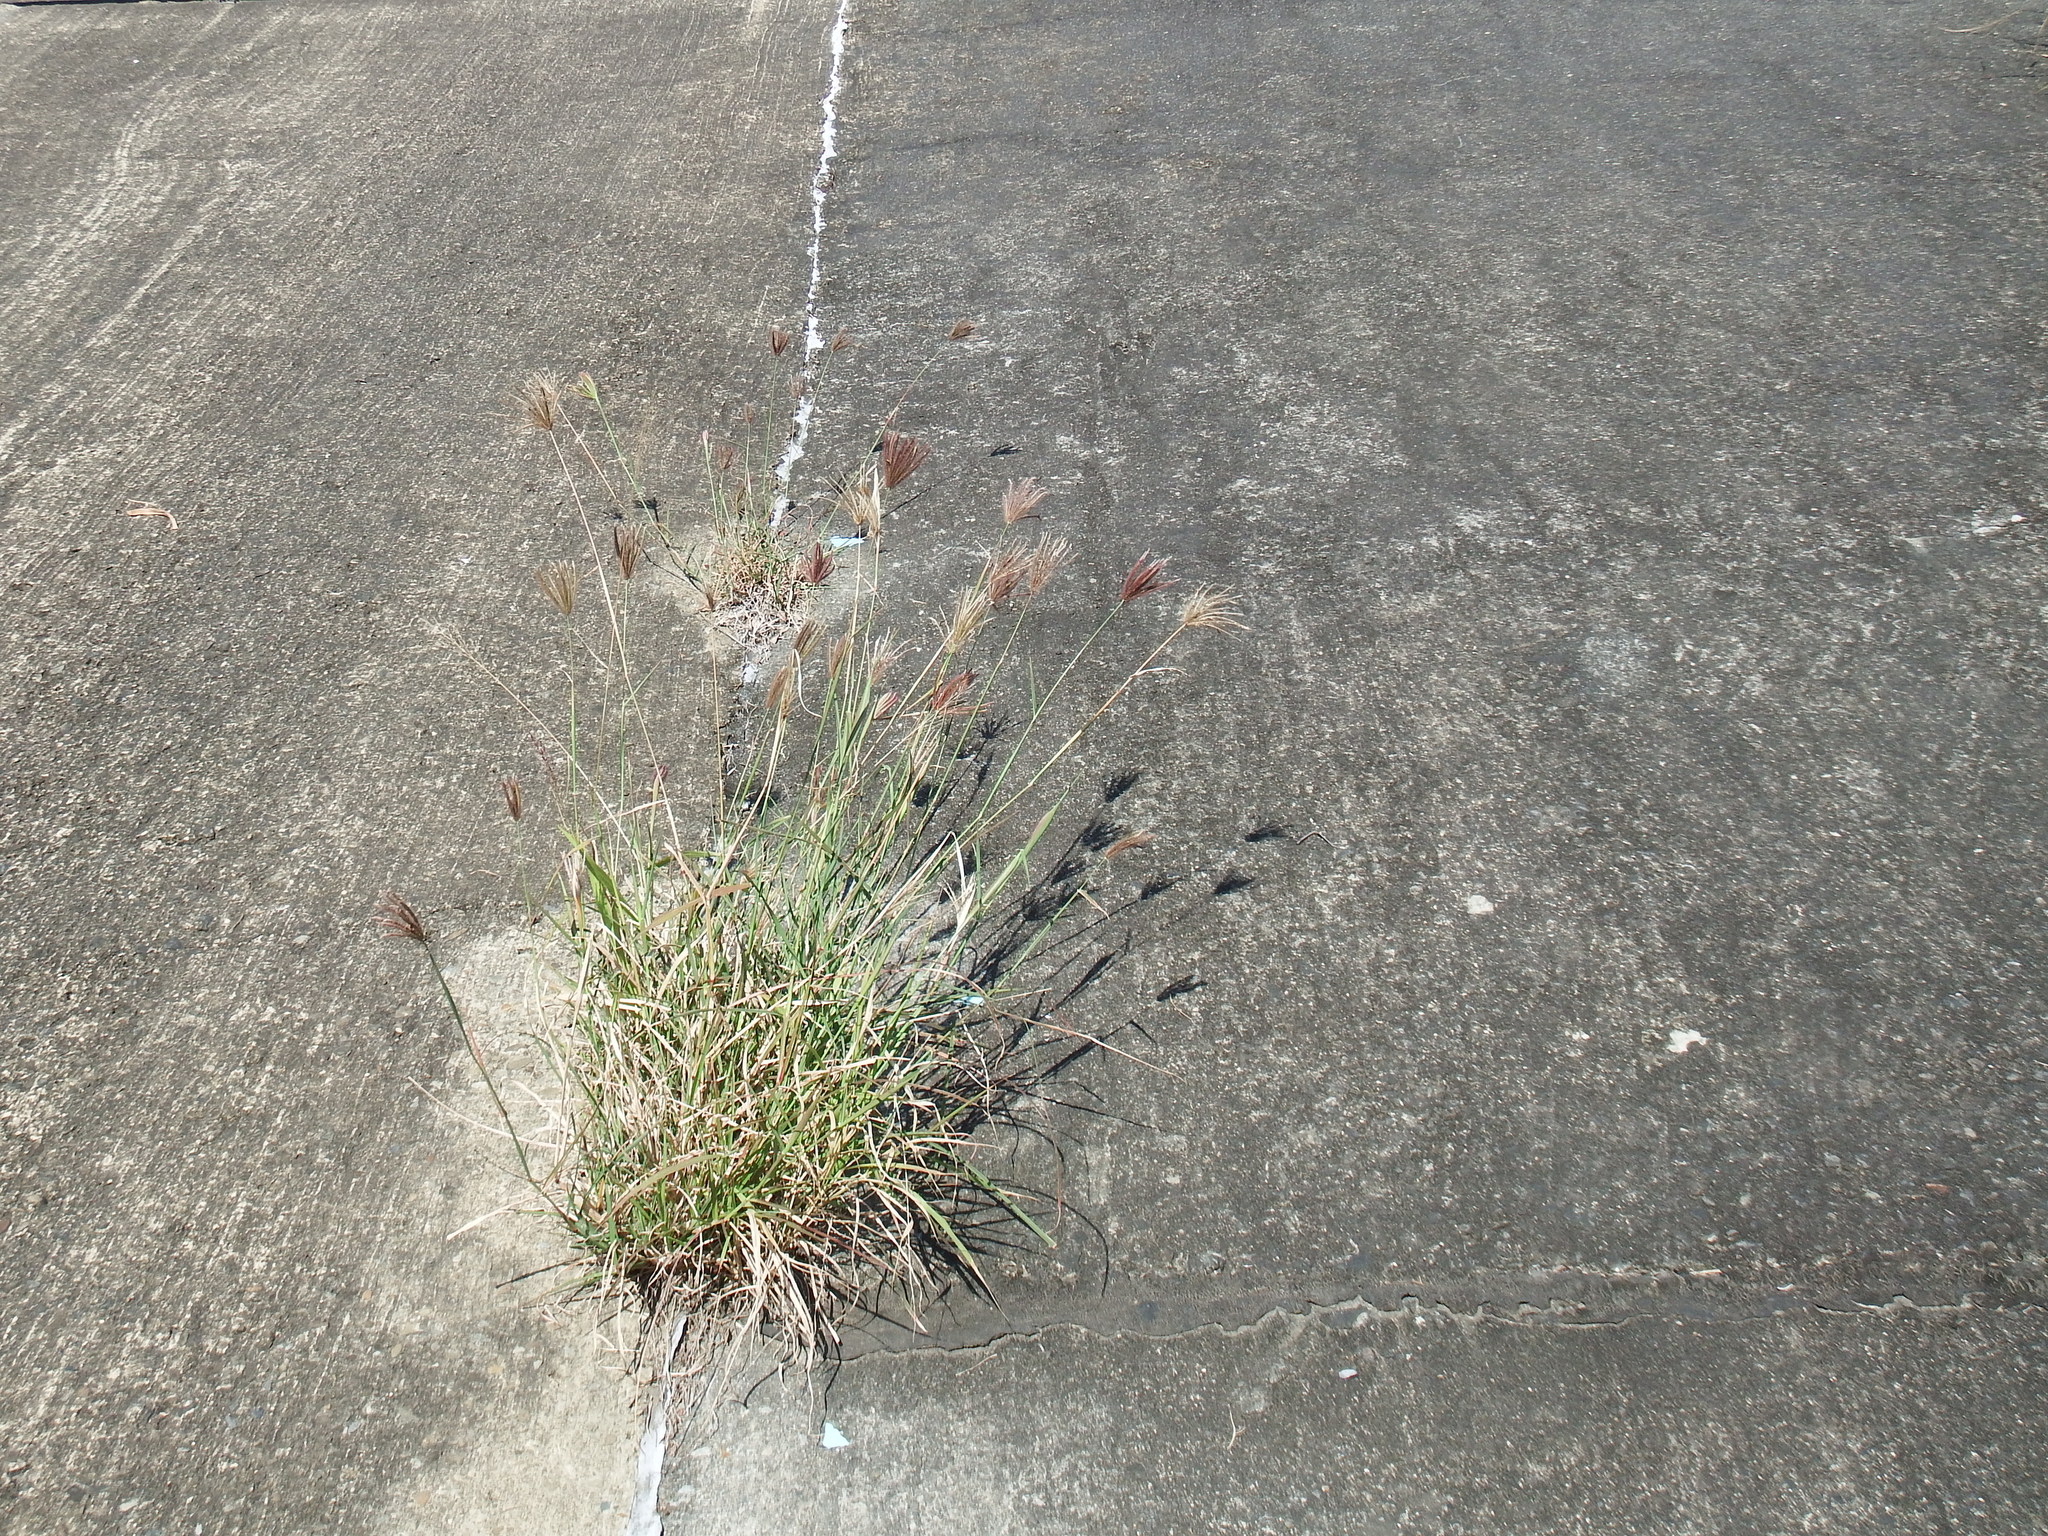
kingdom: Plantae
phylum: Tracheophyta
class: Liliopsida
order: Poales
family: Poaceae
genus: Chloris
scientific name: Chloris barbata
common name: Swollen fingergrass
